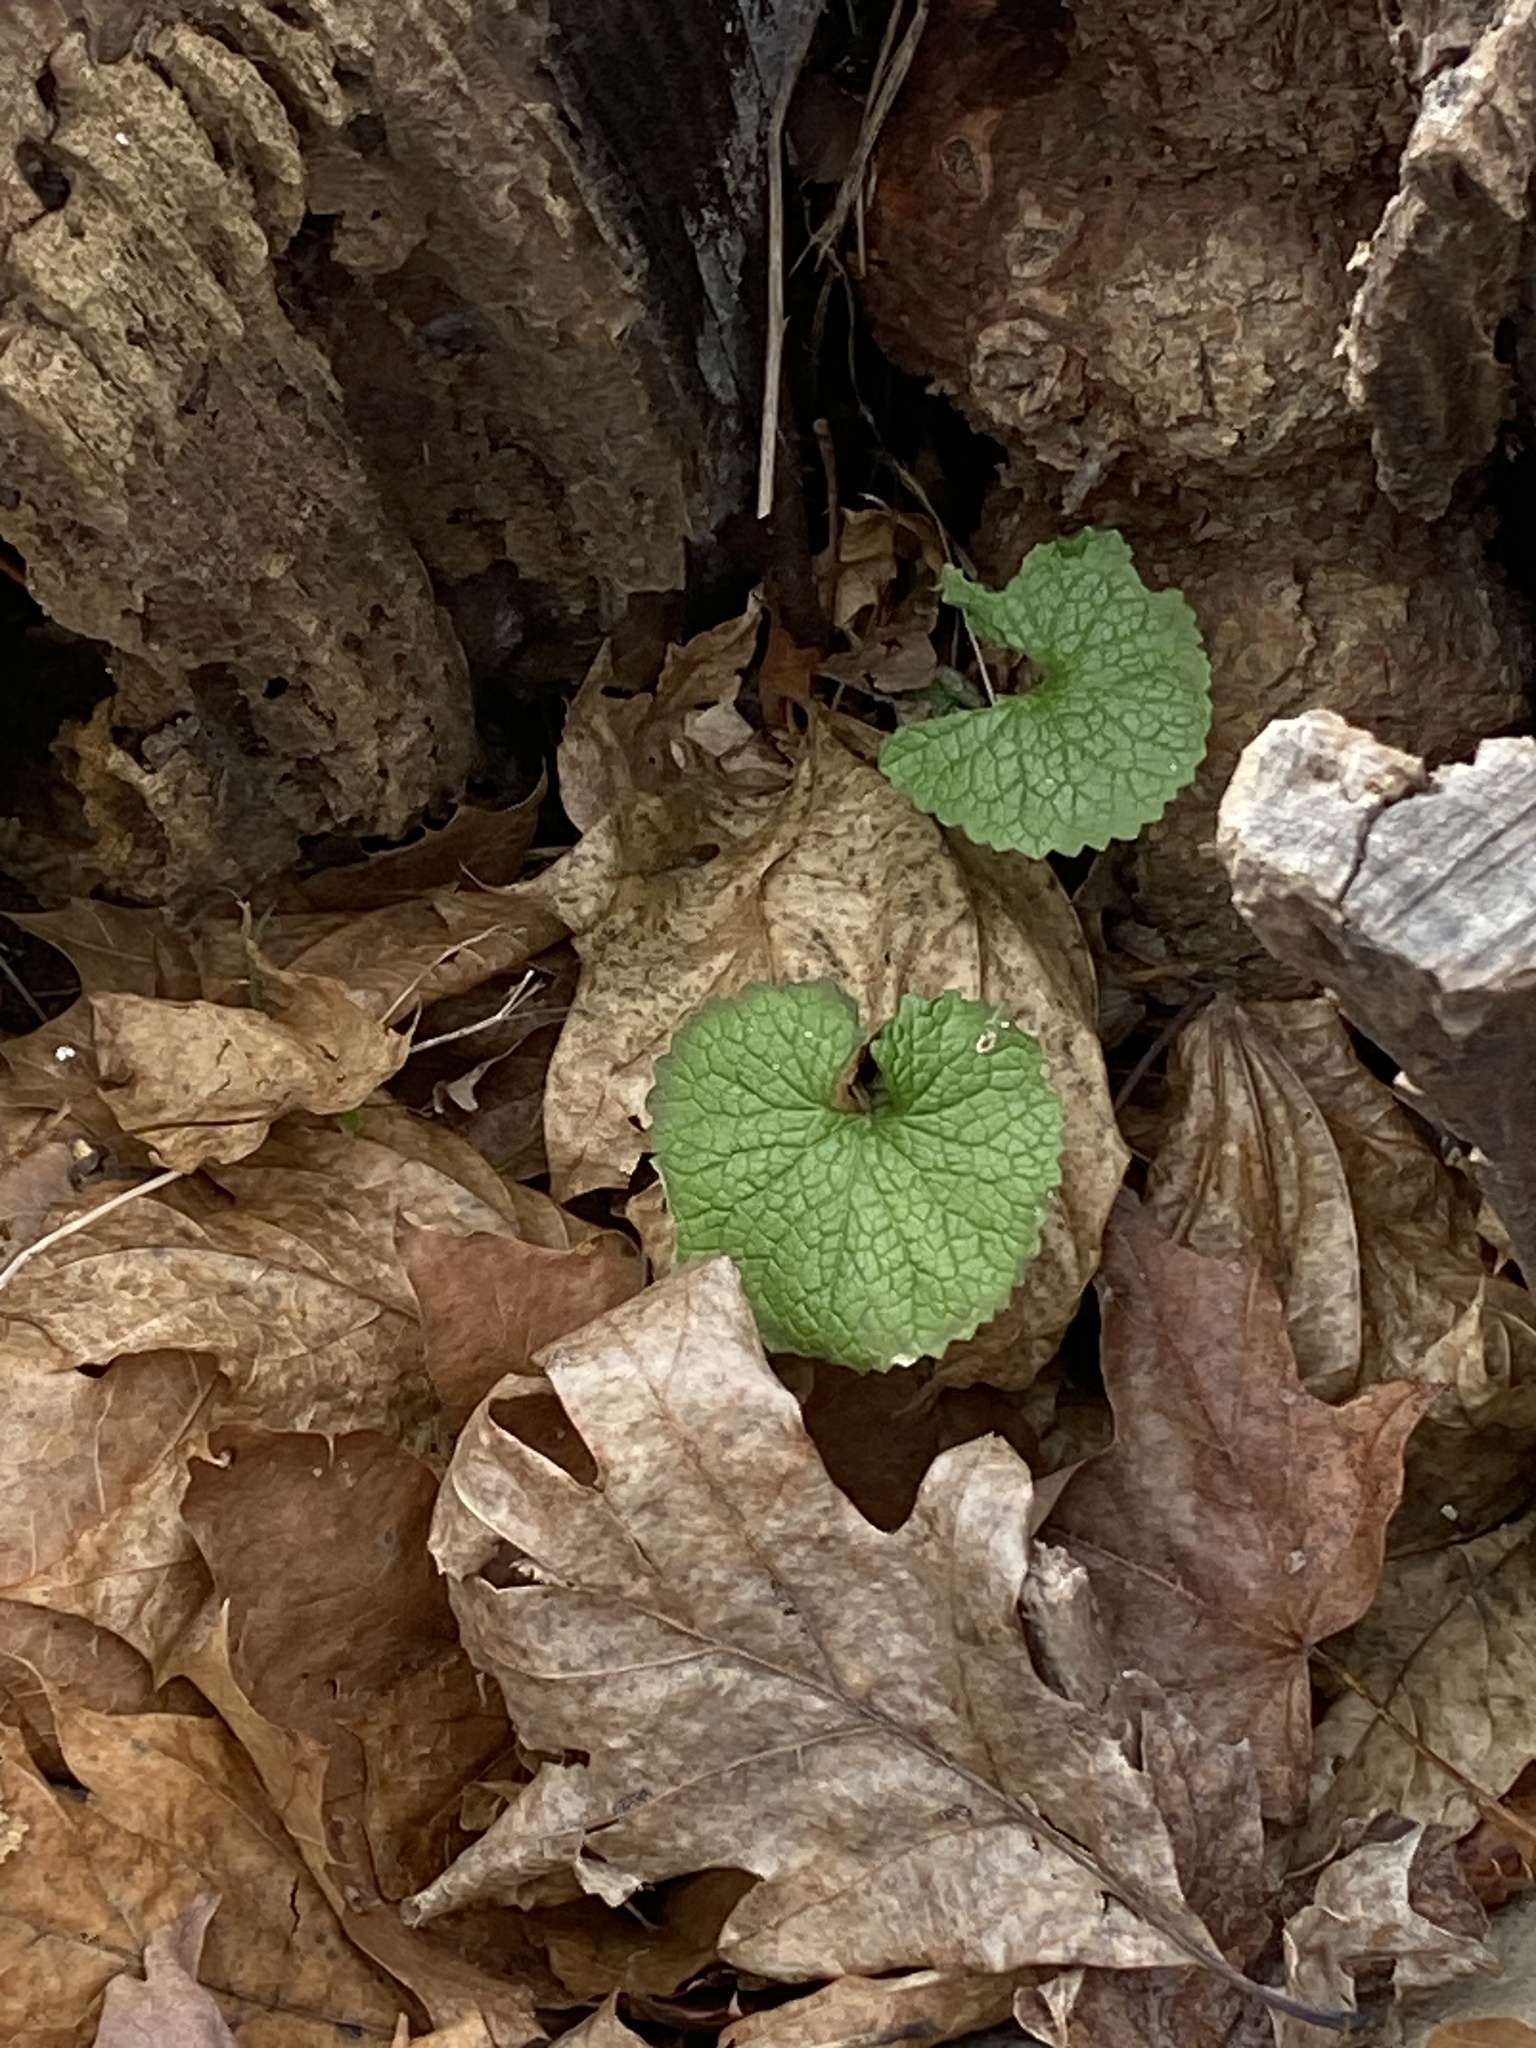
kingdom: Plantae
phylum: Tracheophyta
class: Magnoliopsida
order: Brassicales
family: Brassicaceae
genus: Alliaria
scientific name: Alliaria petiolata
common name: Garlic mustard
